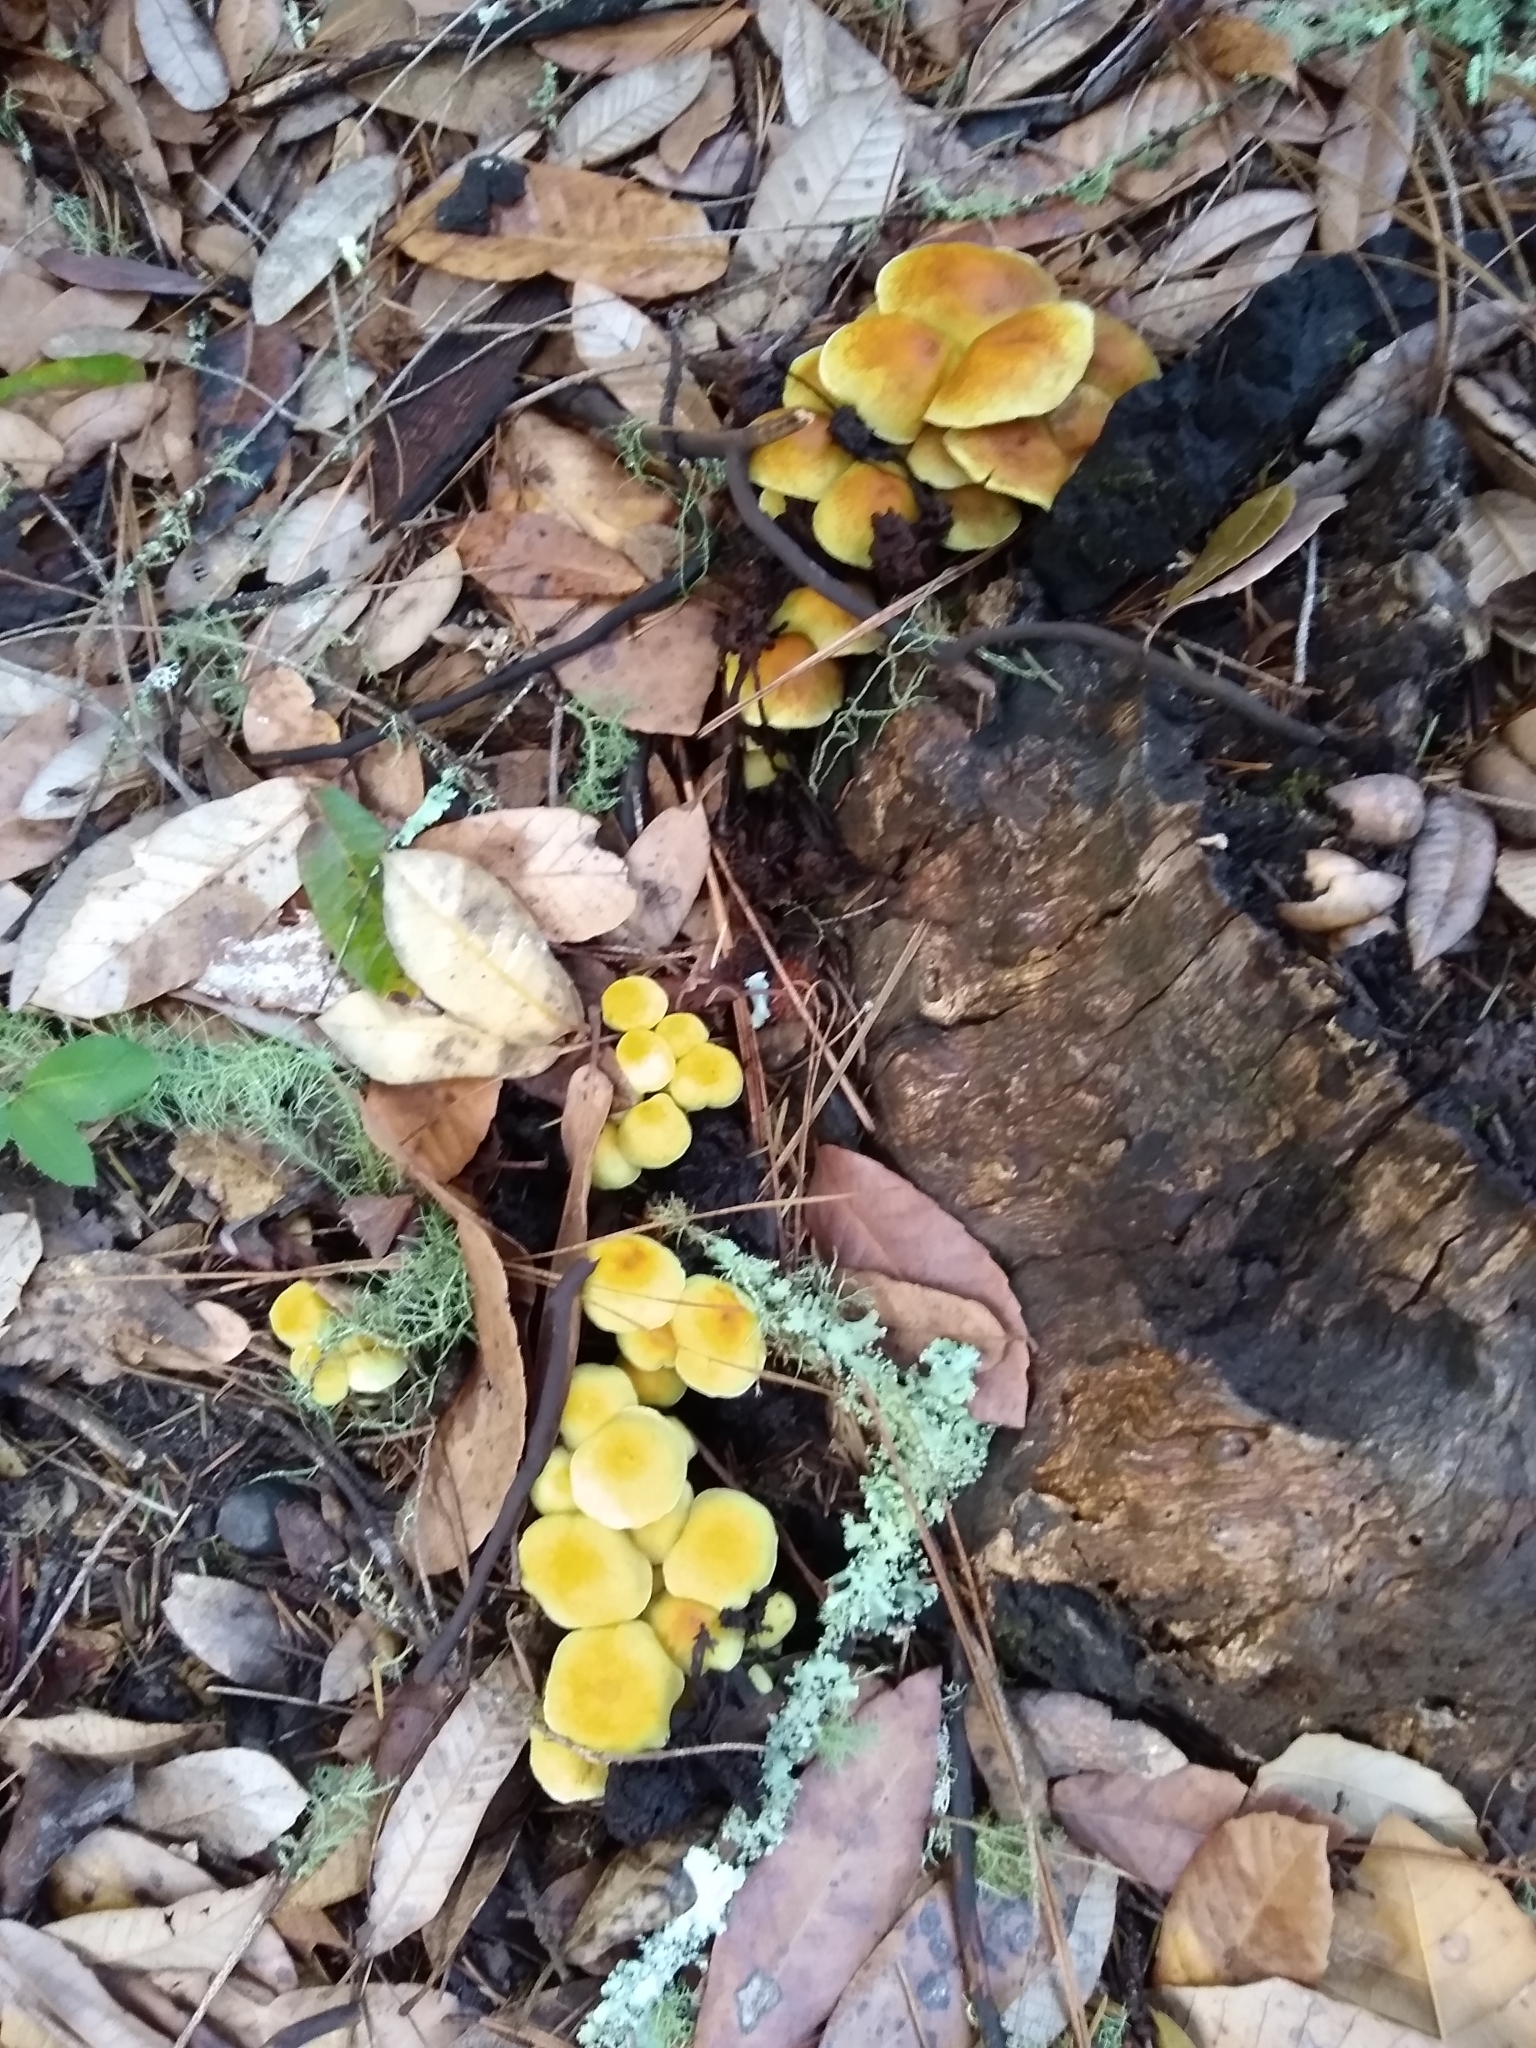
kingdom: Fungi
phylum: Basidiomycota
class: Agaricomycetes
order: Agaricales
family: Strophariaceae
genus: Hypholoma
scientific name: Hypholoma fasciculare
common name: Sulphur tuft
